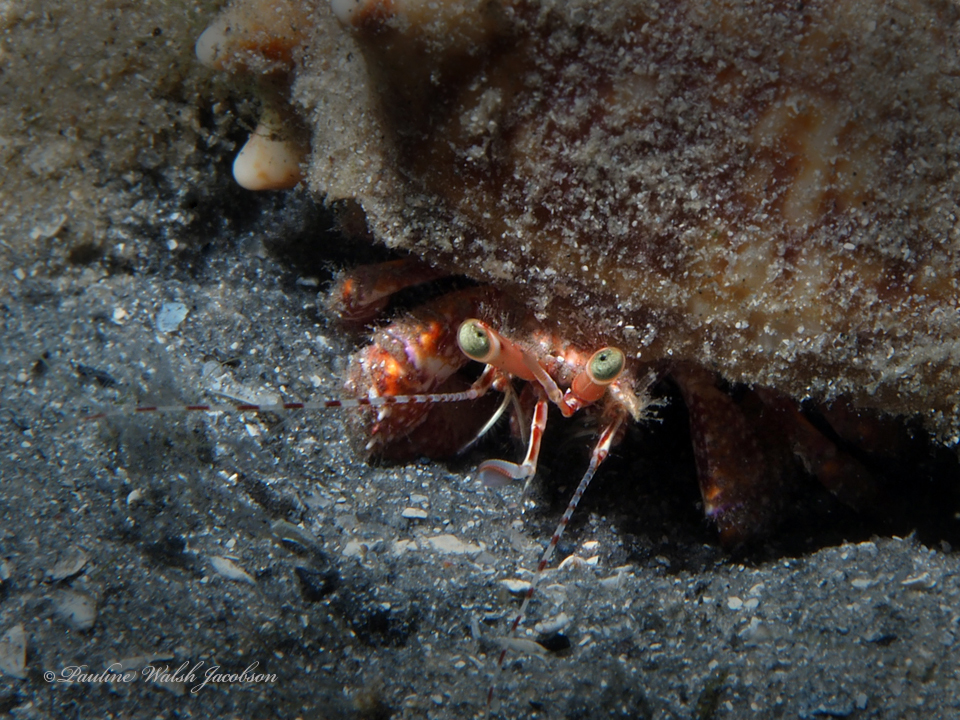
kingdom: Animalia
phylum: Arthropoda
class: Malacostraca
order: Decapoda
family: Diogenidae
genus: Petrochirus
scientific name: Petrochirus diogenes
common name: Giant hermit crab
